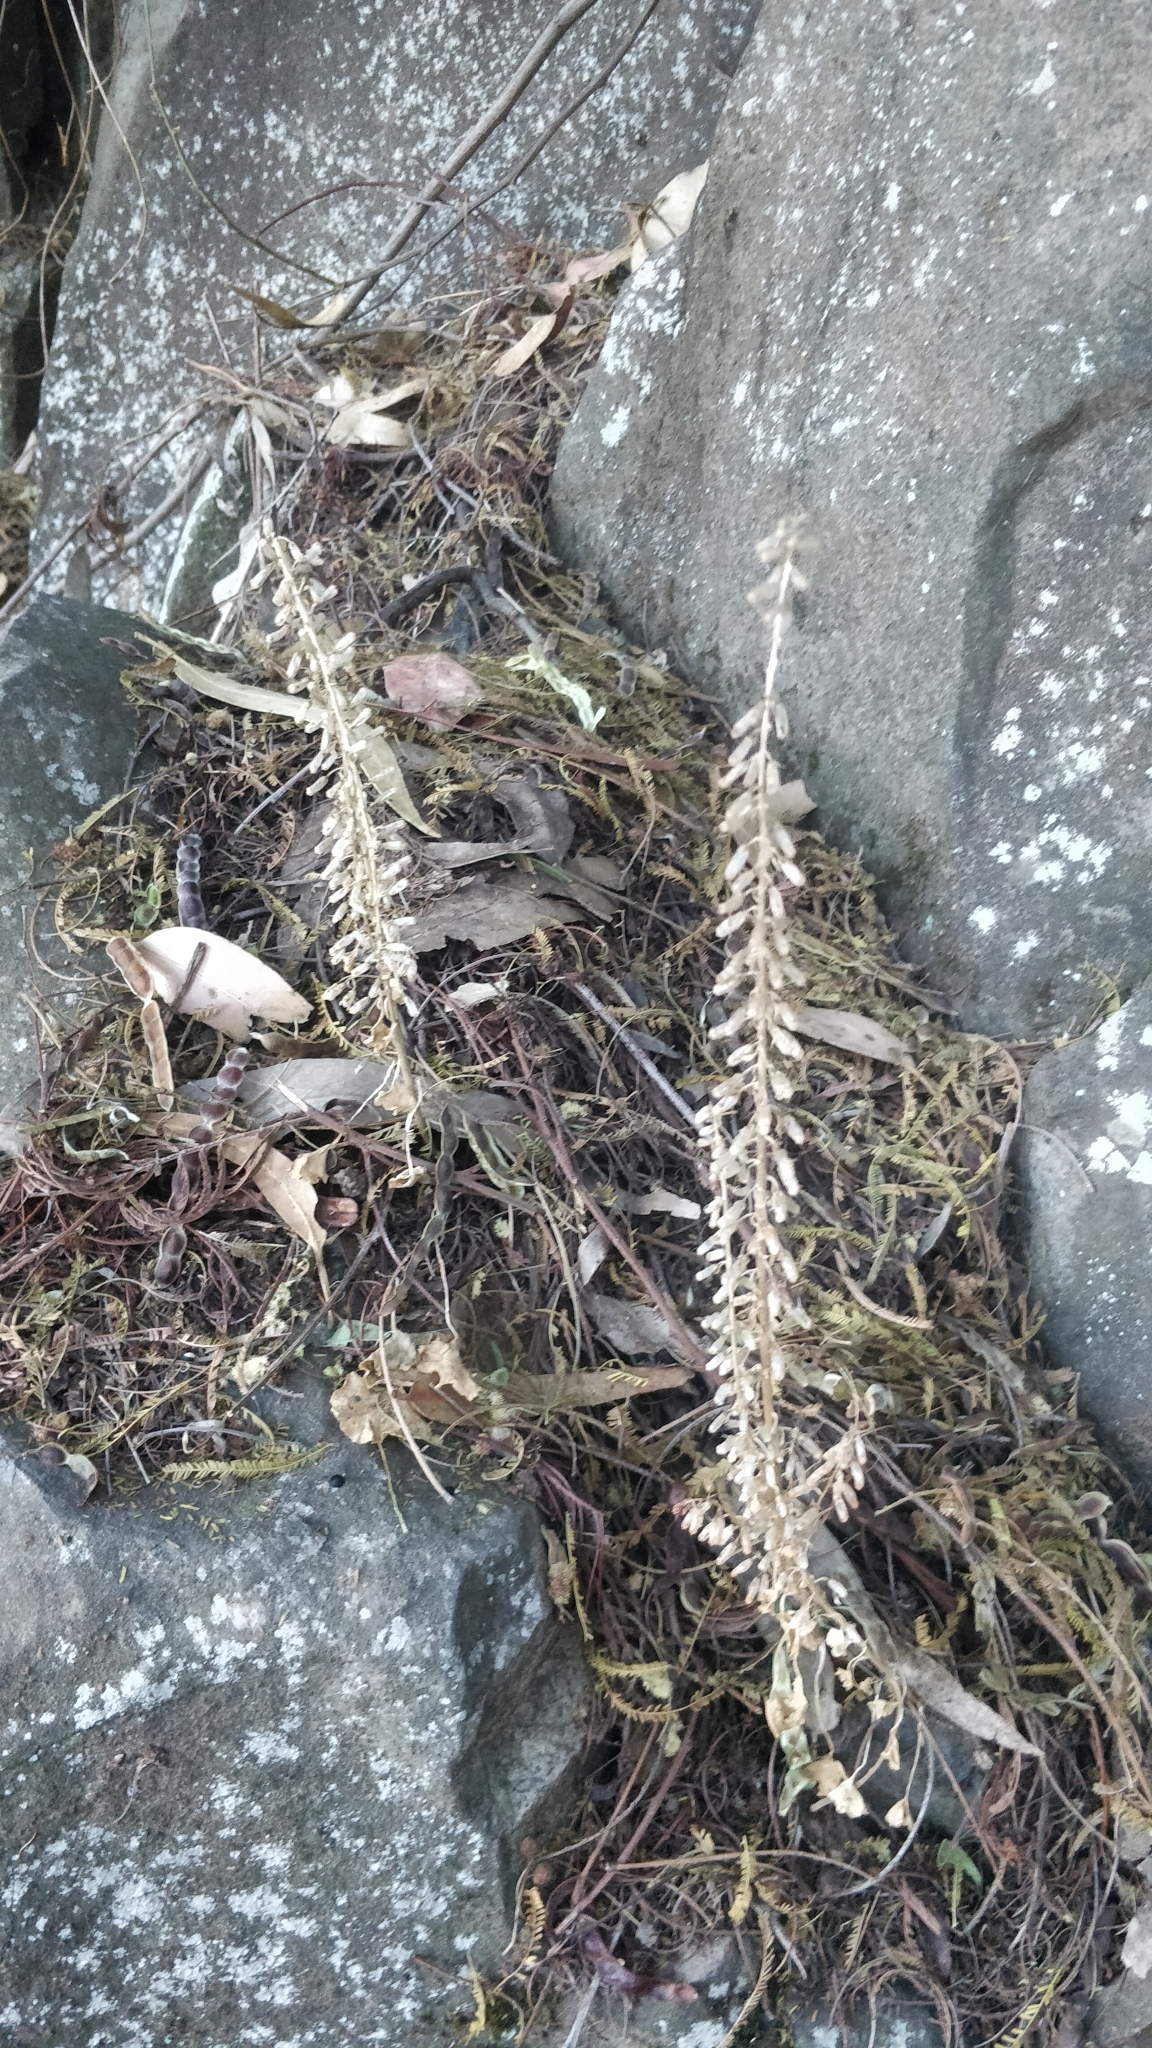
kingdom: Plantae
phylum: Tracheophyta
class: Magnoliopsida
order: Saxifragales
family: Crassulaceae
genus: Umbilicus
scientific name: Umbilicus rupestris
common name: Navelwort
